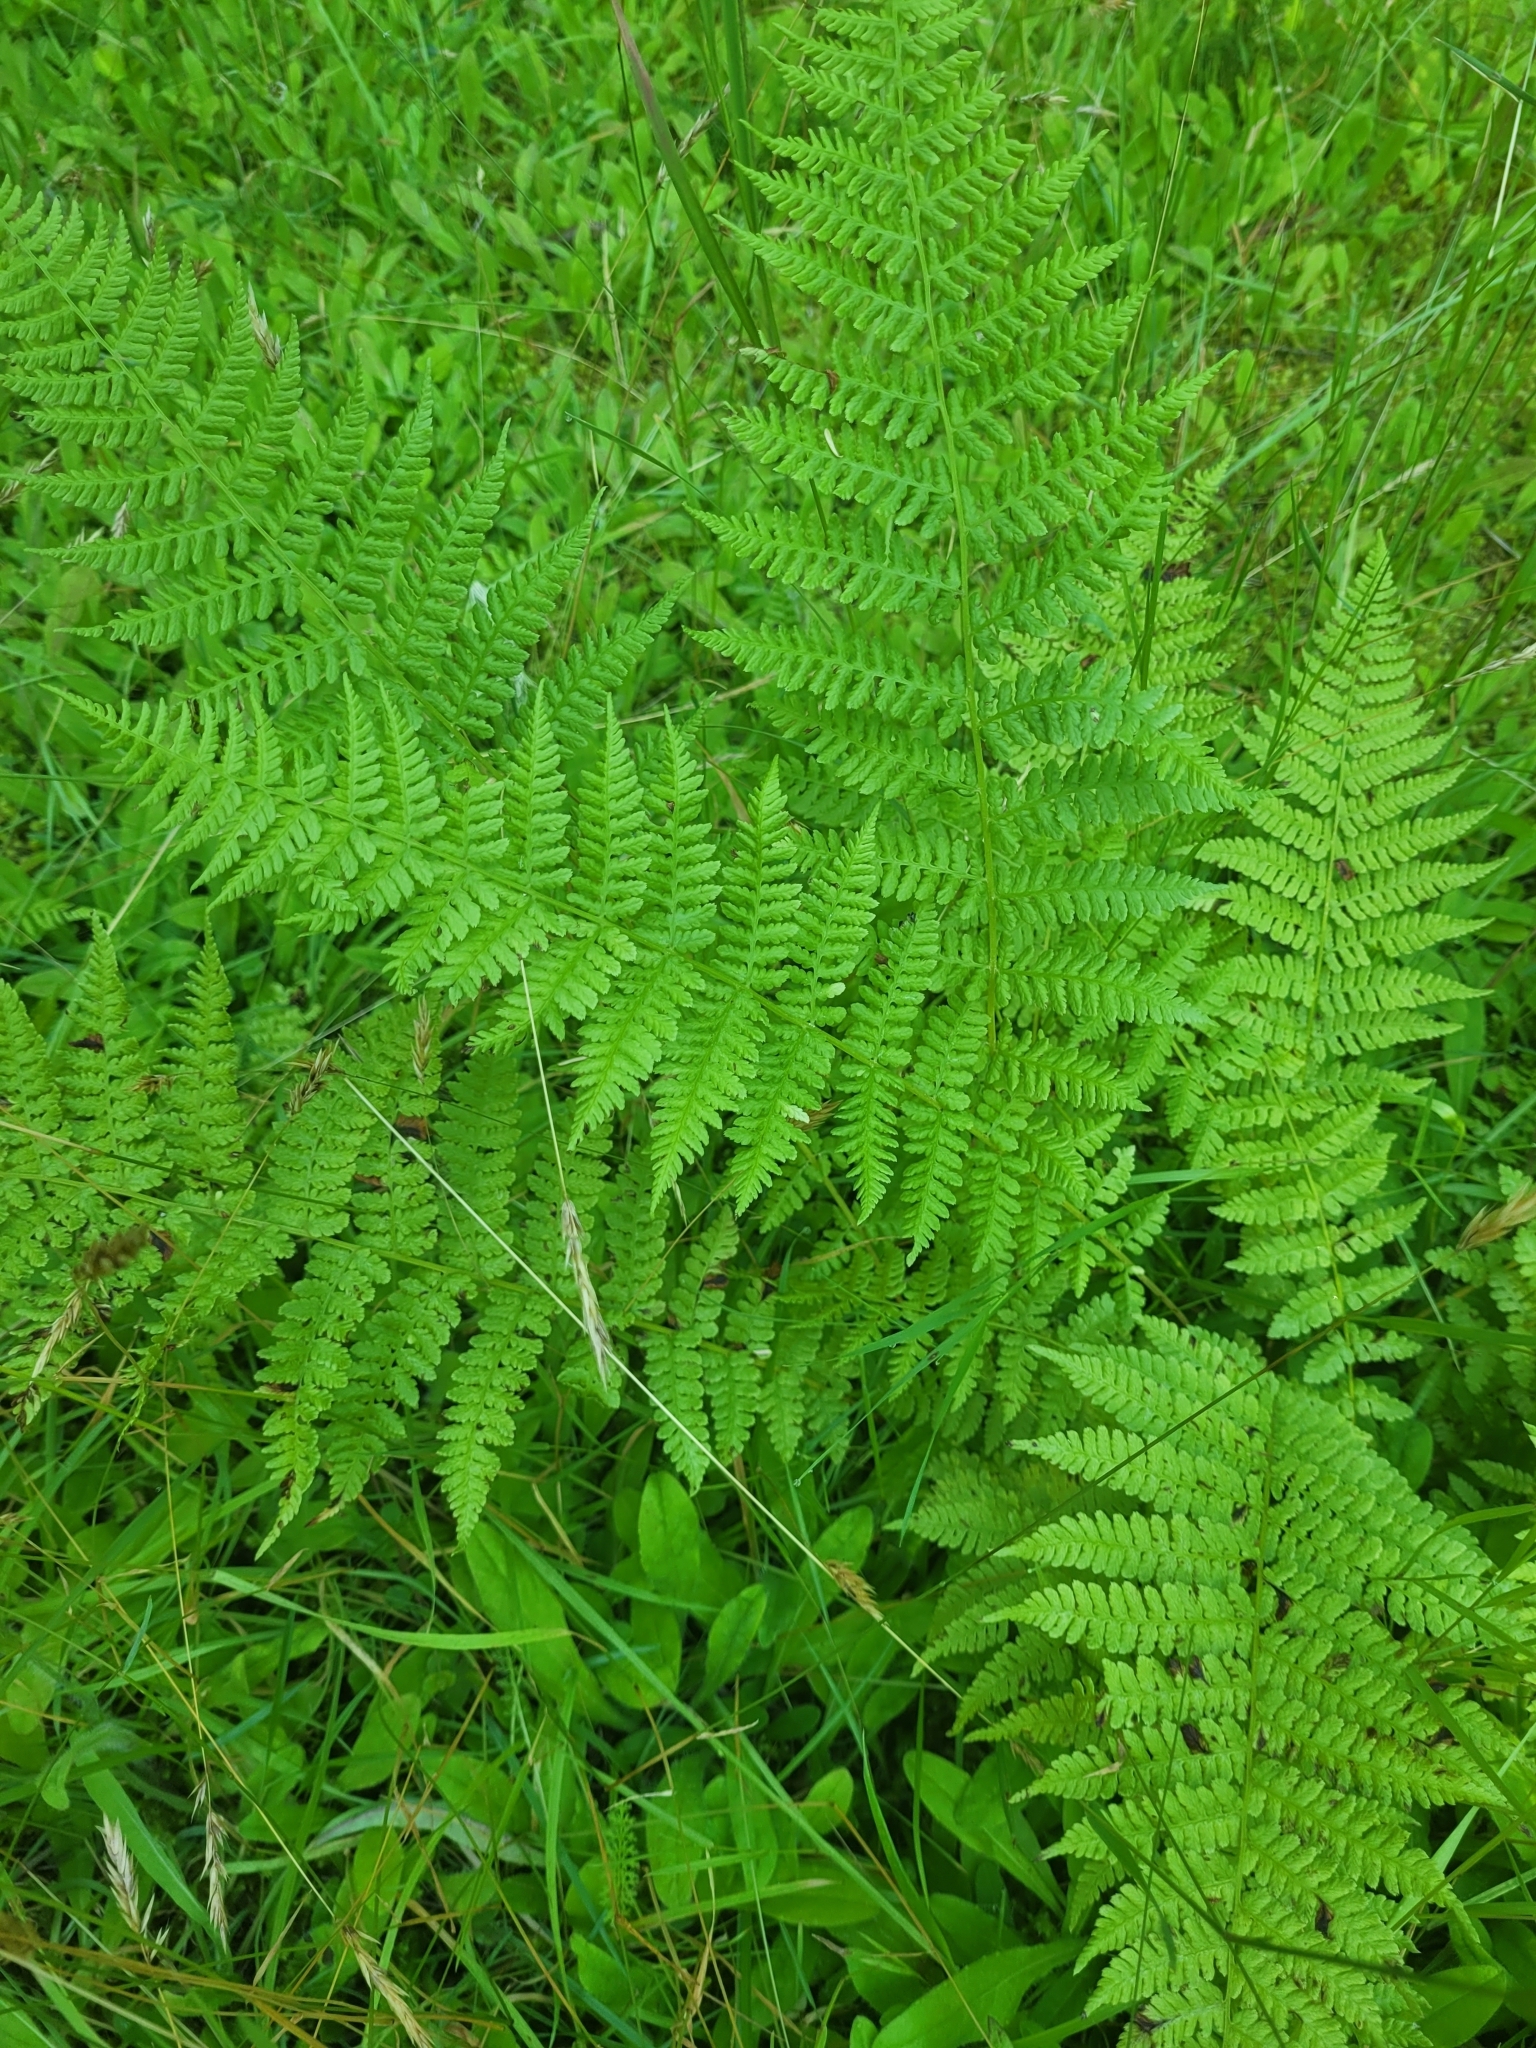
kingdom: Plantae
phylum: Tracheophyta
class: Polypodiopsida
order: Polypodiales
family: Athyriaceae
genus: Athyrium
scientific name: Athyrium cyclosorum
